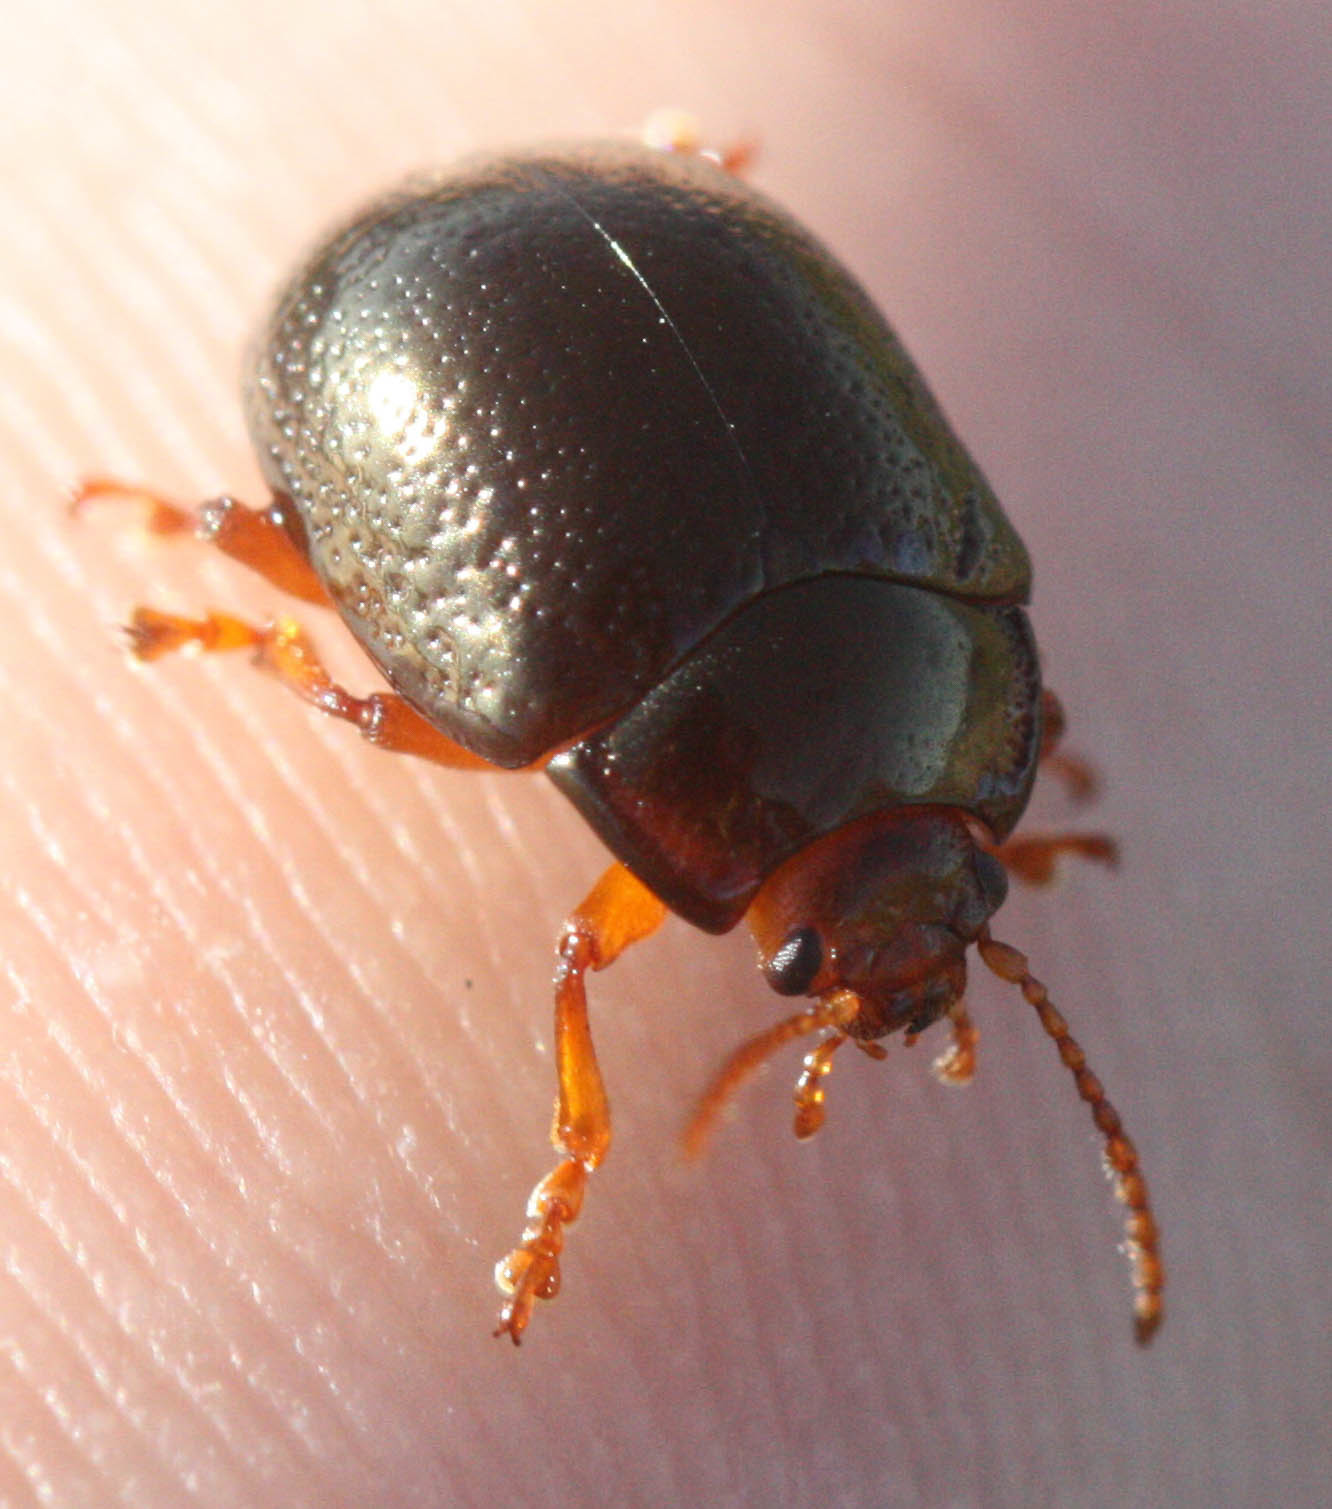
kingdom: Animalia
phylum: Arthropoda
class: Insecta
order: Coleoptera
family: Chrysomelidae
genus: Chrysolina
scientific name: Chrysolina bankii
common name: Leaf beetle
